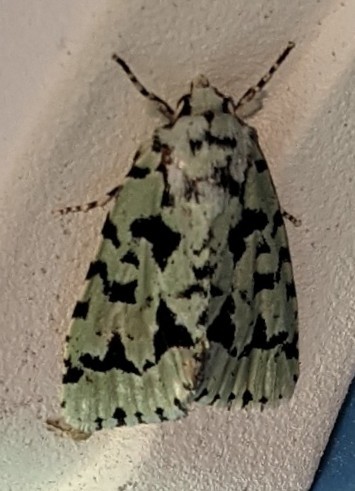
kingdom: Animalia
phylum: Arthropoda
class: Insecta
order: Lepidoptera
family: Noctuidae
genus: Acronicta
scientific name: Acronicta fallax
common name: Green marvel
